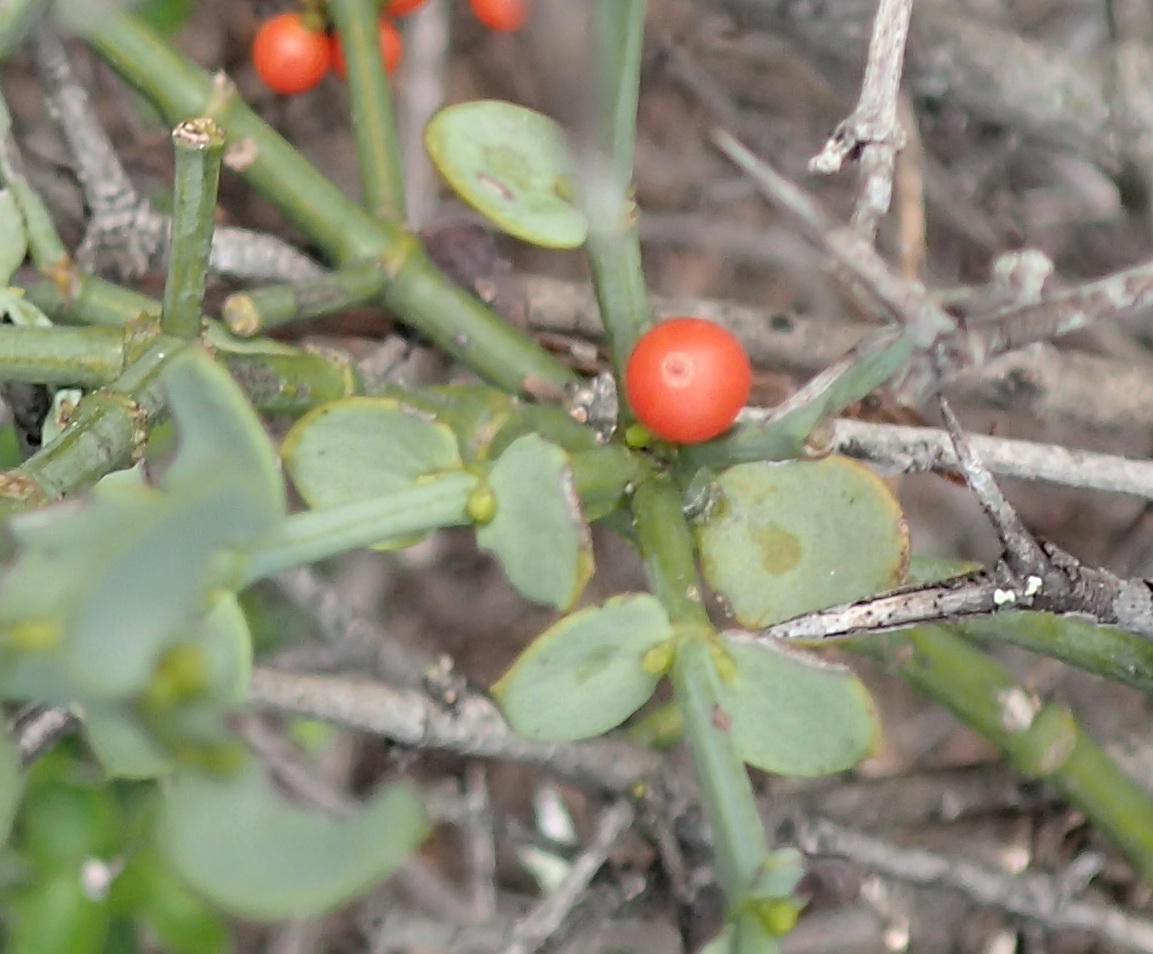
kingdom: Plantae
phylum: Tracheophyta
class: Magnoliopsida
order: Santalales
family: Viscaceae
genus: Viscum
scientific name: Viscum rotundifolium
